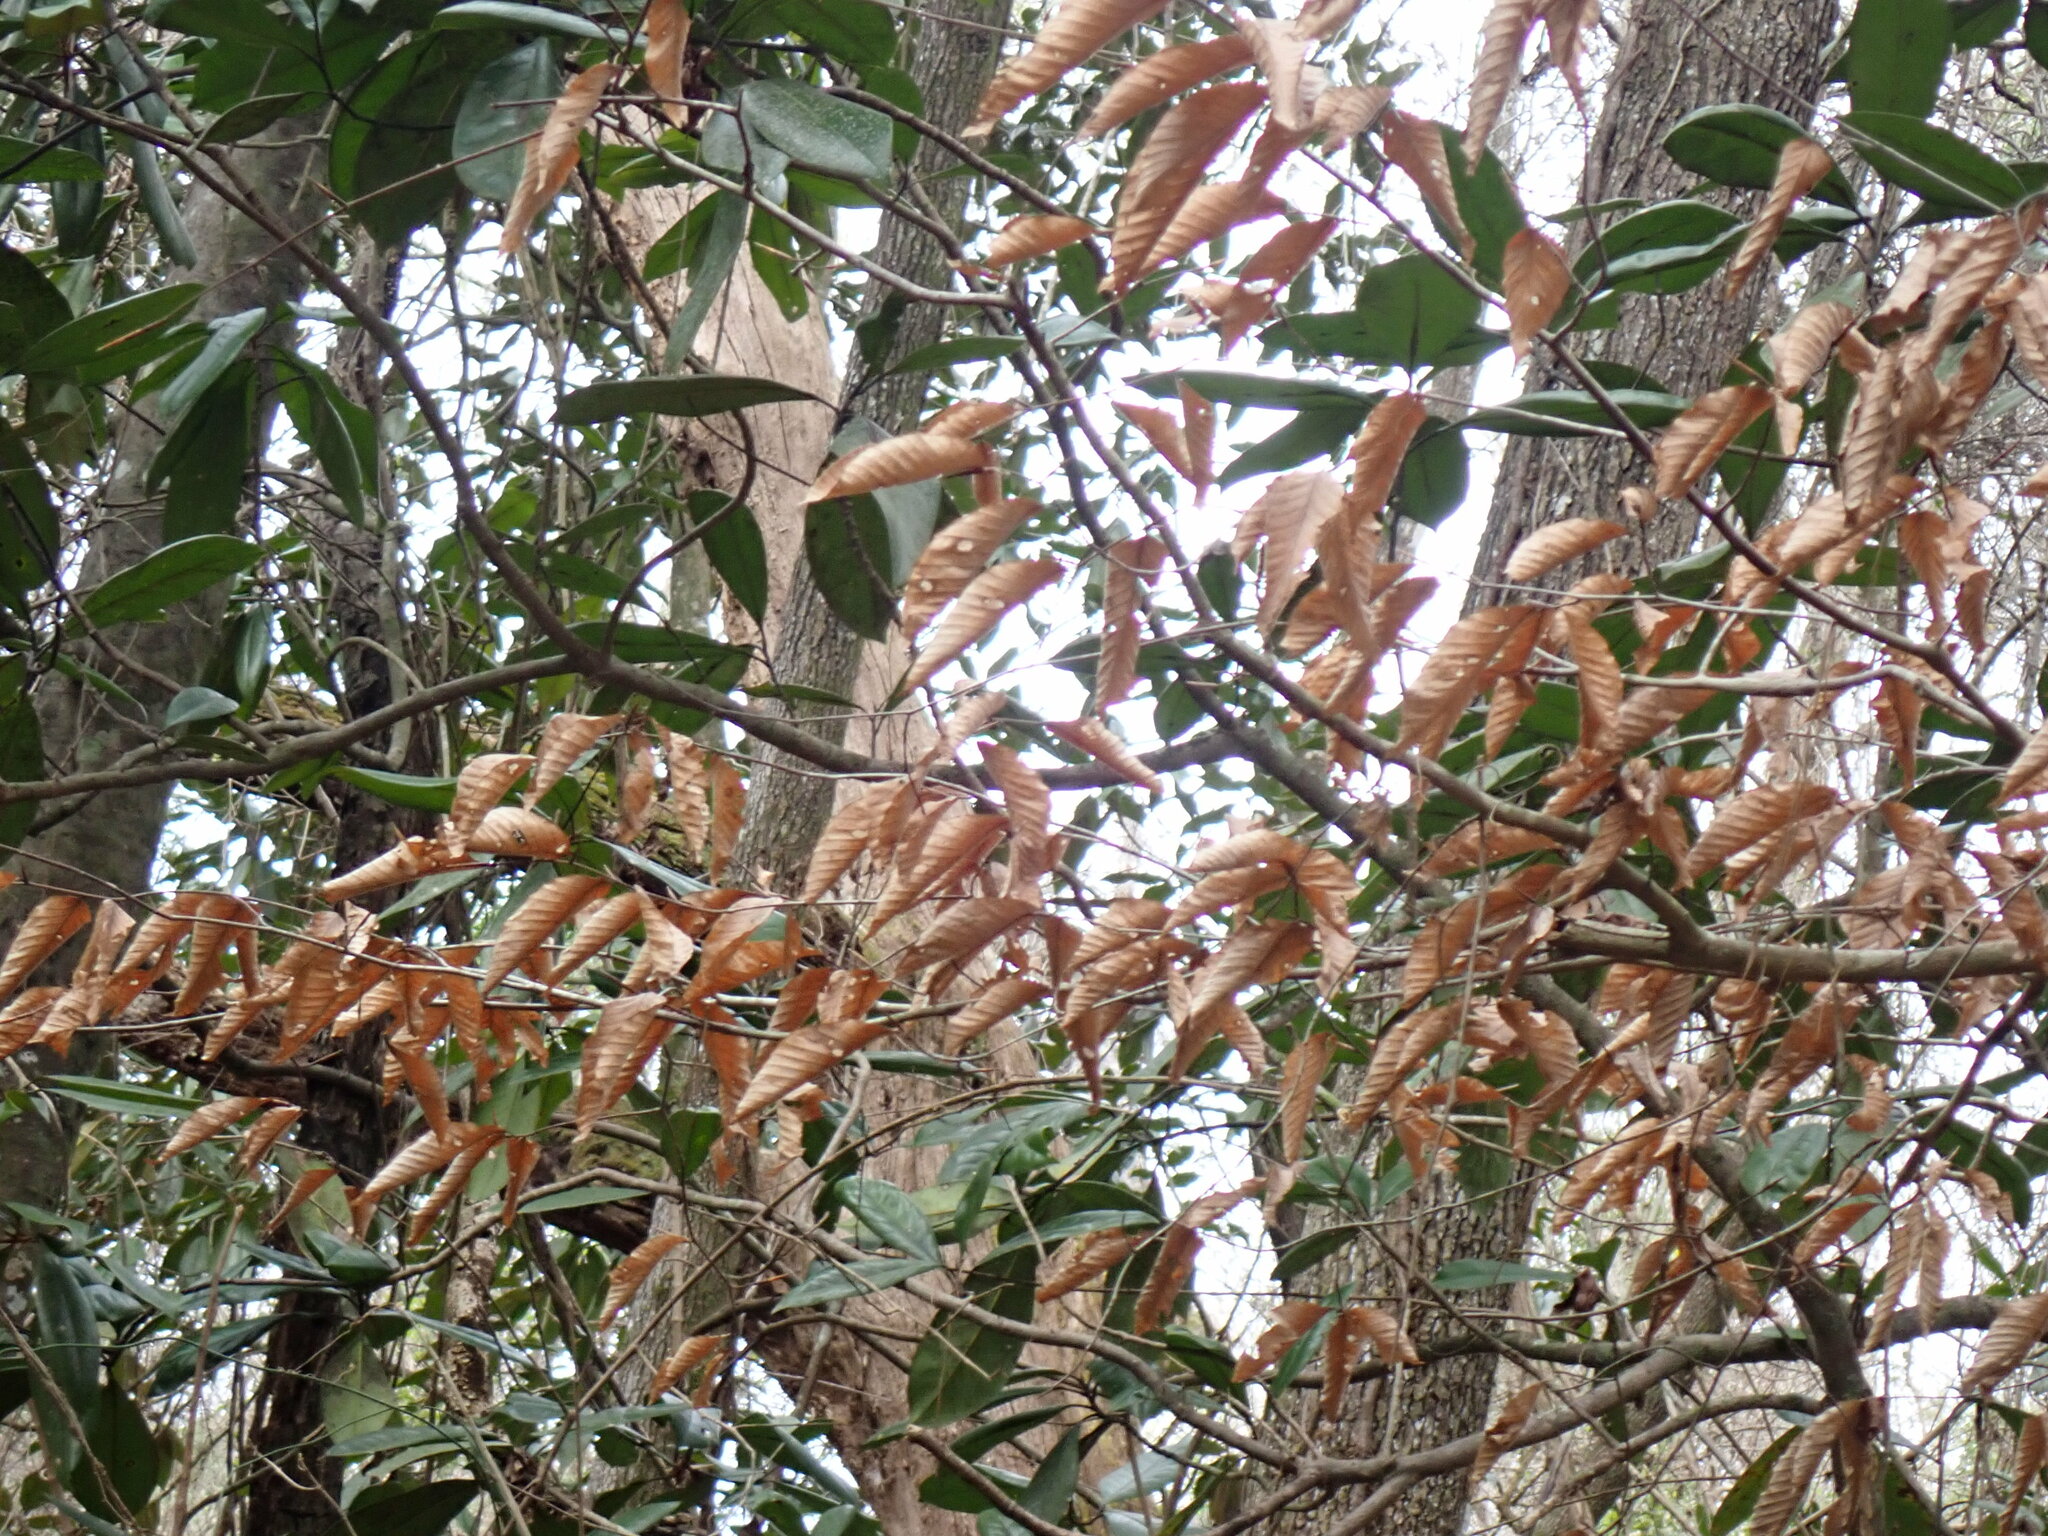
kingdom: Plantae
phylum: Tracheophyta
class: Magnoliopsida
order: Fagales
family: Fagaceae
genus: Fagus
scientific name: Fagus grandifolia
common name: American beech
